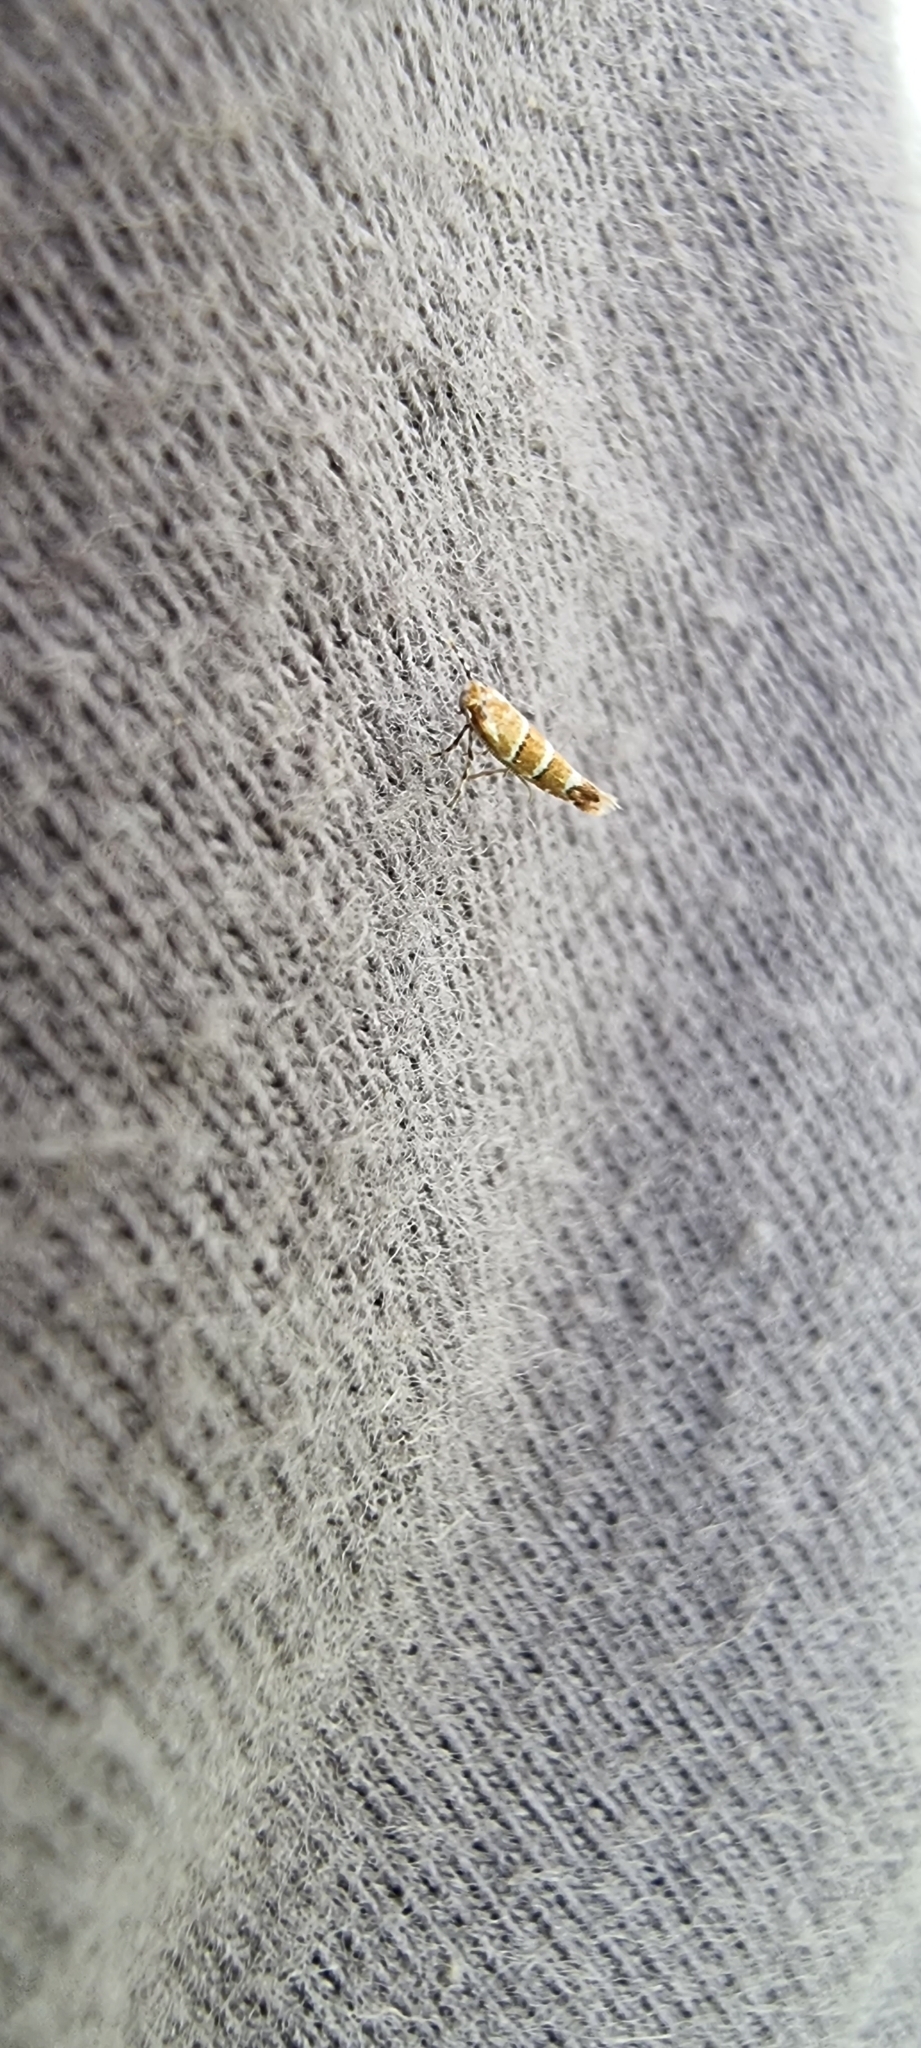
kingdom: Animalia
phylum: Arthropoda
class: Insecta
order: Lepidoptera
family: Gracillariidae
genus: Cameraria
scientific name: Cameraria ohridella
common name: Horse-chestnut leaf-miner
